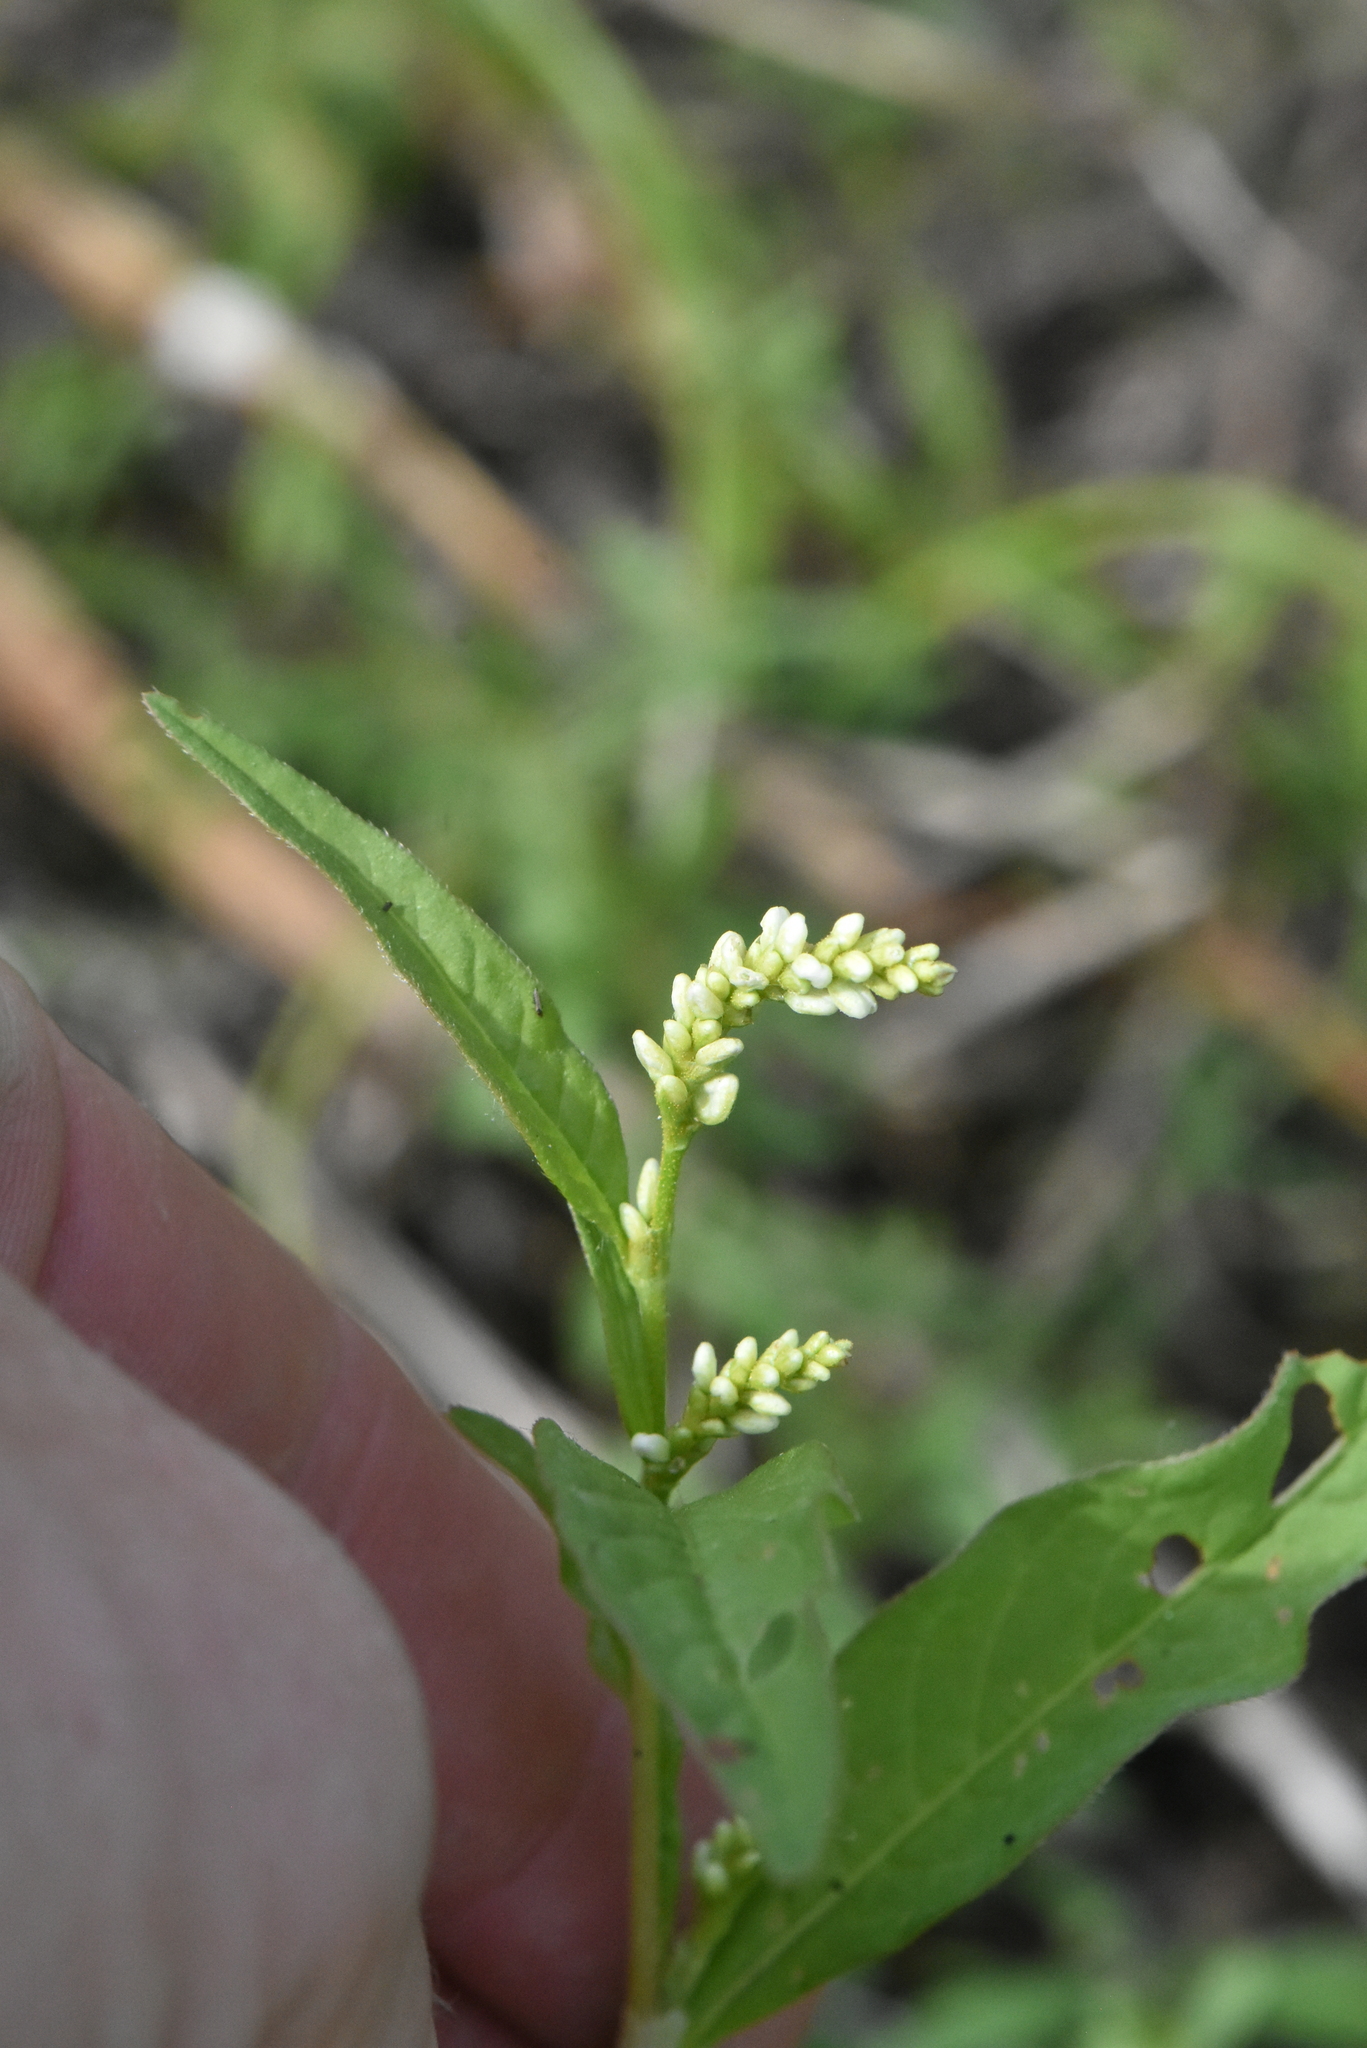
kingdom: Plantae
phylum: Tracheophyta
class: Magnoliopsida
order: Caryophyllales
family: Polygonaceae
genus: Persicaria
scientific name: Persicaria lapathifolia
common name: Curlytop knotweed
